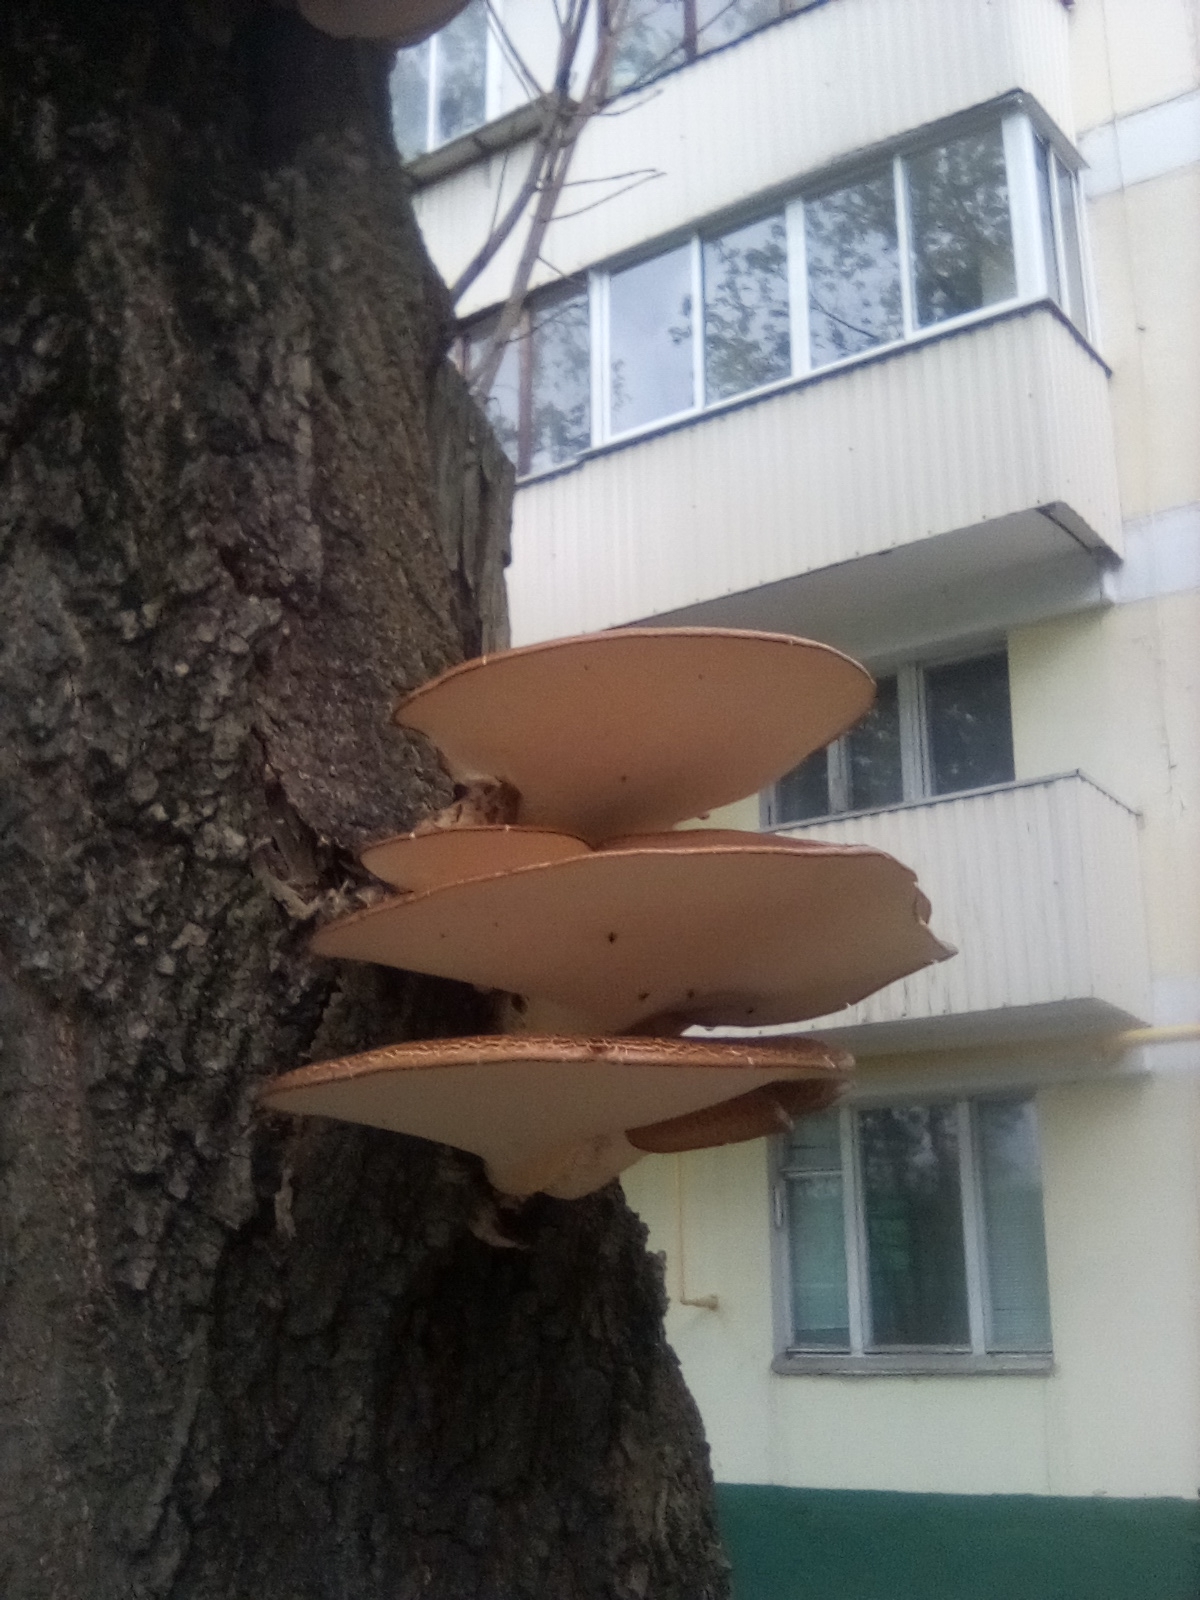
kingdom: Fungi
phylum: Basidiomycota
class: Agaricomycetes
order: Polyporales
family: Polyporaceae
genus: Cerioporus
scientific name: Cerioporus squamosus
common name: Dryad's saddle
